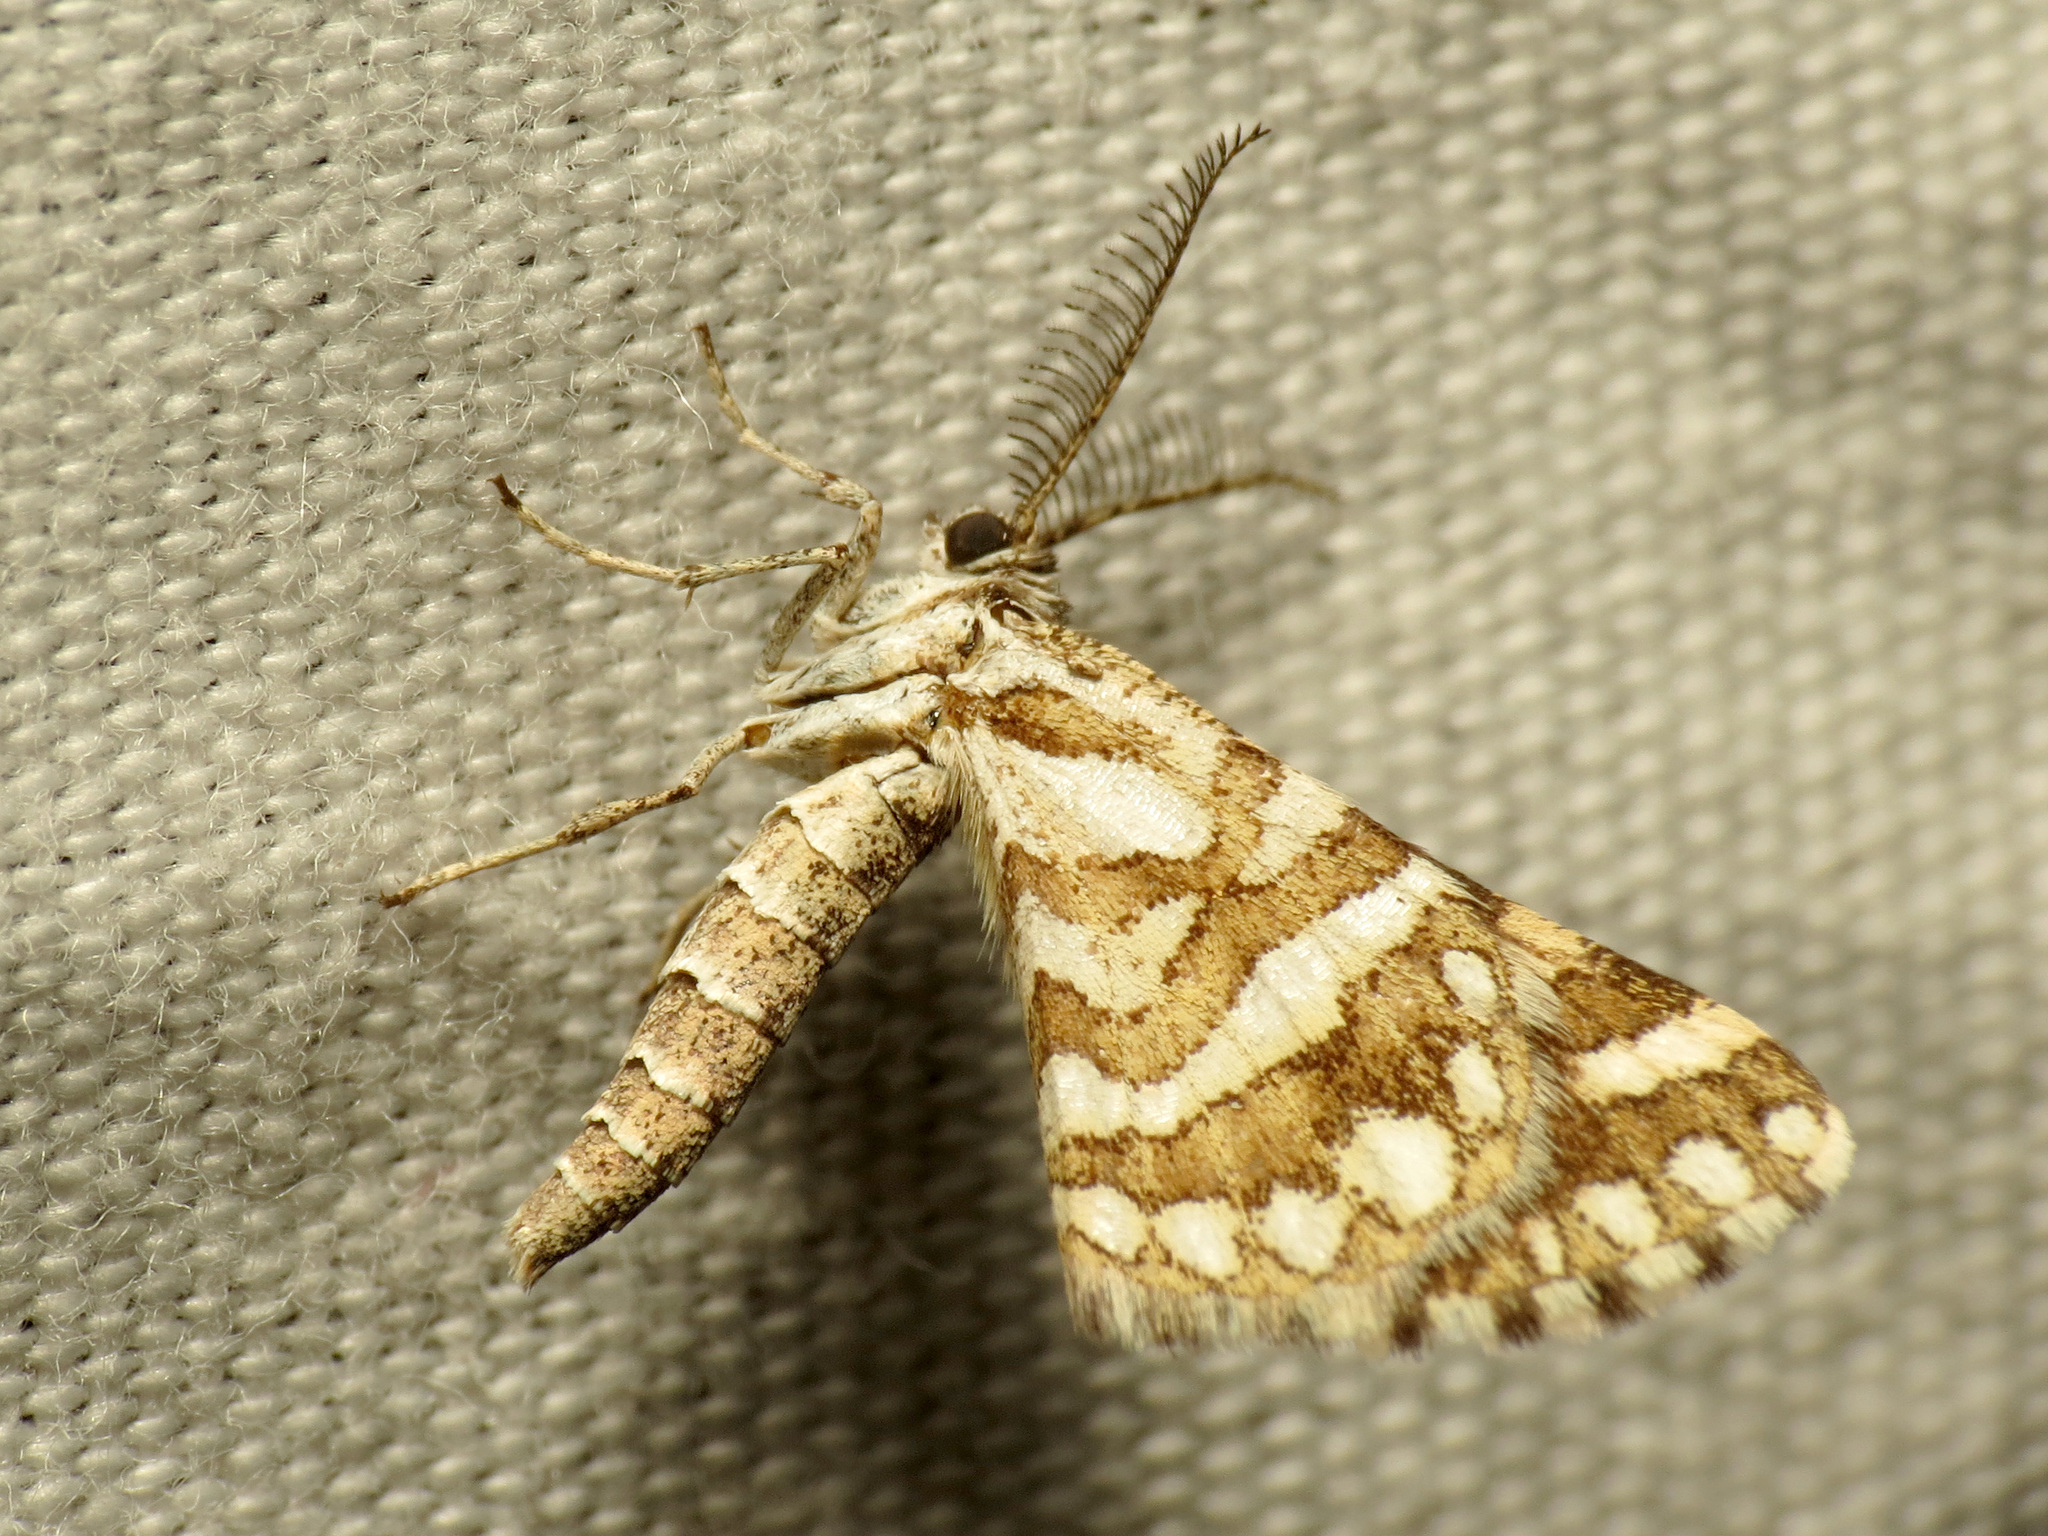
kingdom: Animalia
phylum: Arthropoda
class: Insecta
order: Lepidoptera
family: Geometridae
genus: Narraga
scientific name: Narraga fimetaria
